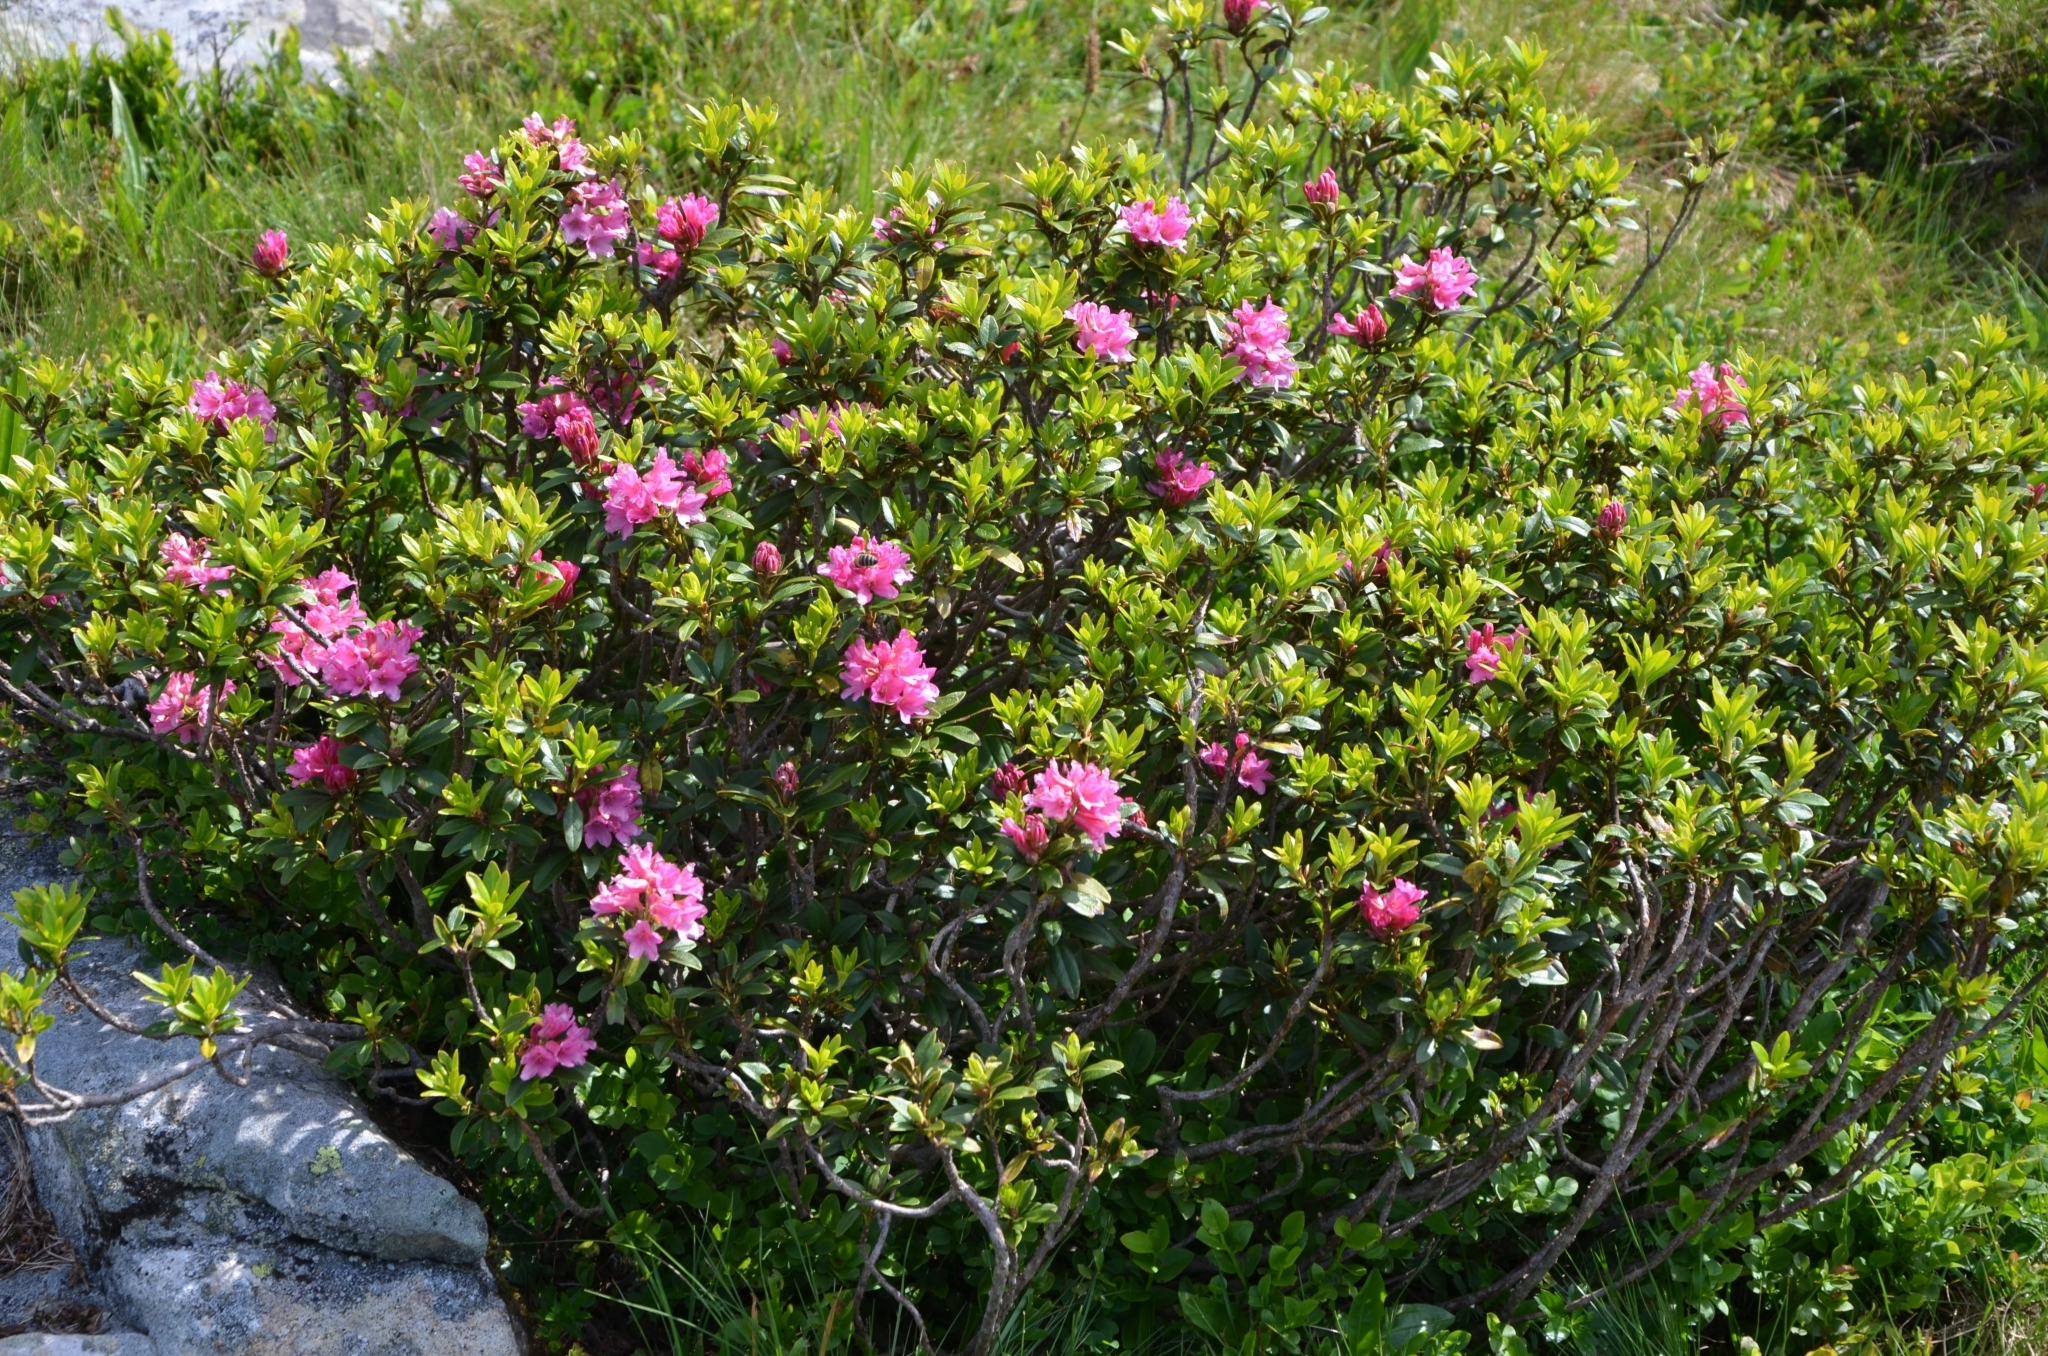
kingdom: Plantae
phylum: Tracheophyta
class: Magnoliopsida
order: Ericales
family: Ericaceae
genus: Rhododendron
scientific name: Rhododendron ferrugineum
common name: Alpenrose
